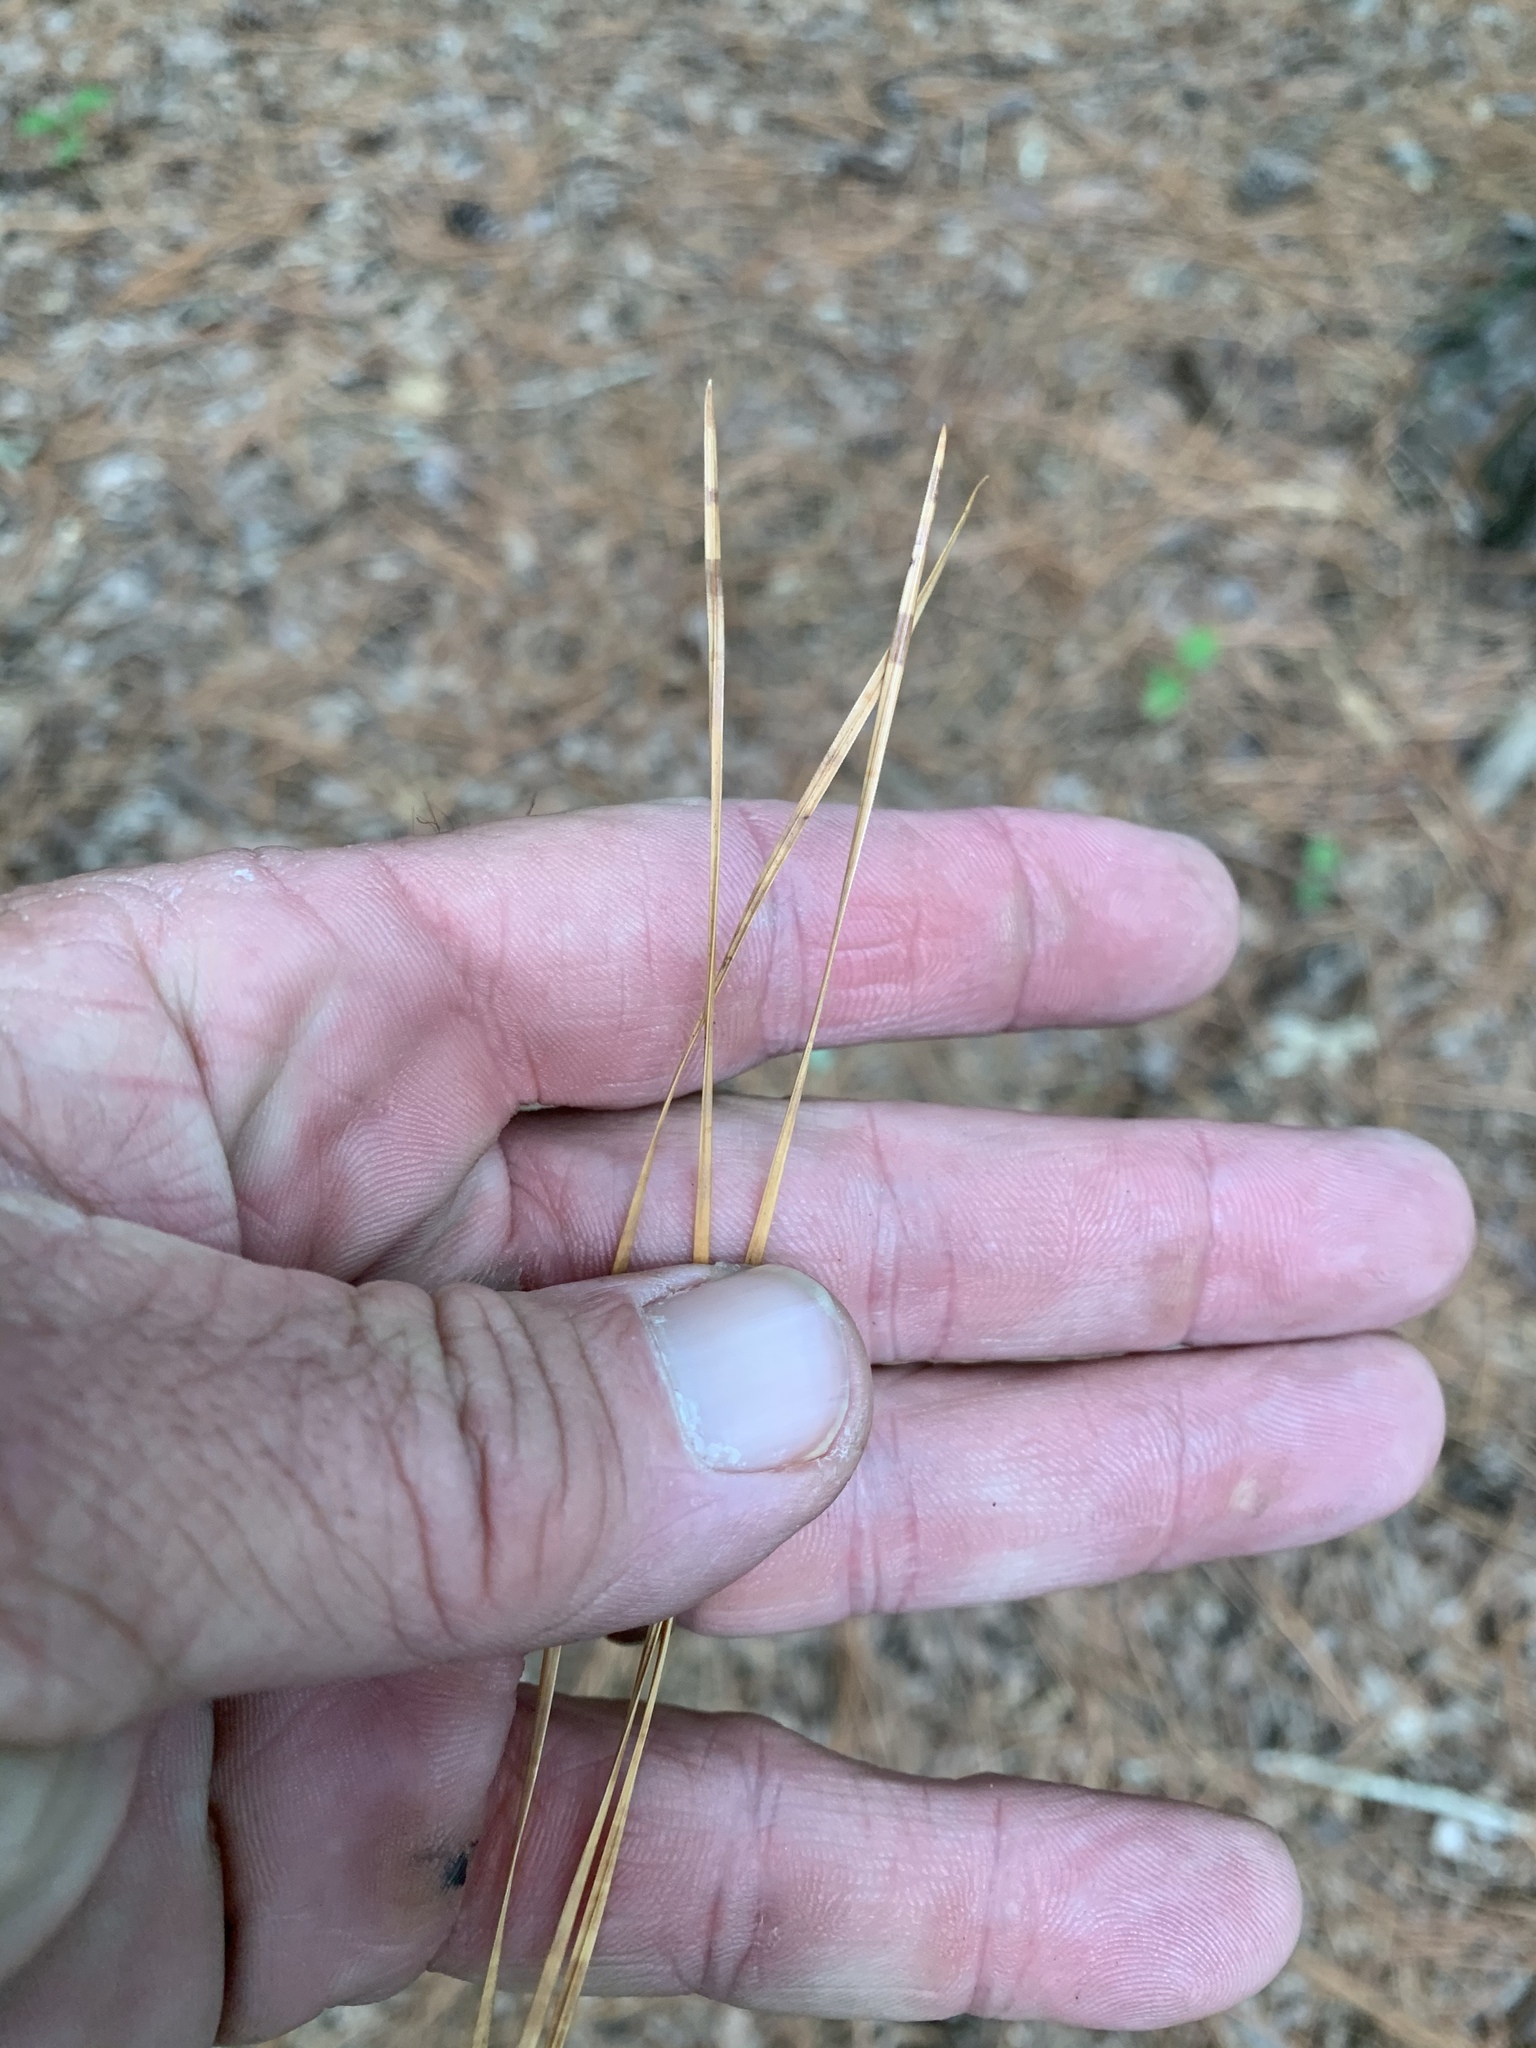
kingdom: Plantae
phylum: Tracheophyta
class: Pinopsida
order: Pinales
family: Pinaceae
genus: Pinus
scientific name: Pinus taeda
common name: Loblolly pine
